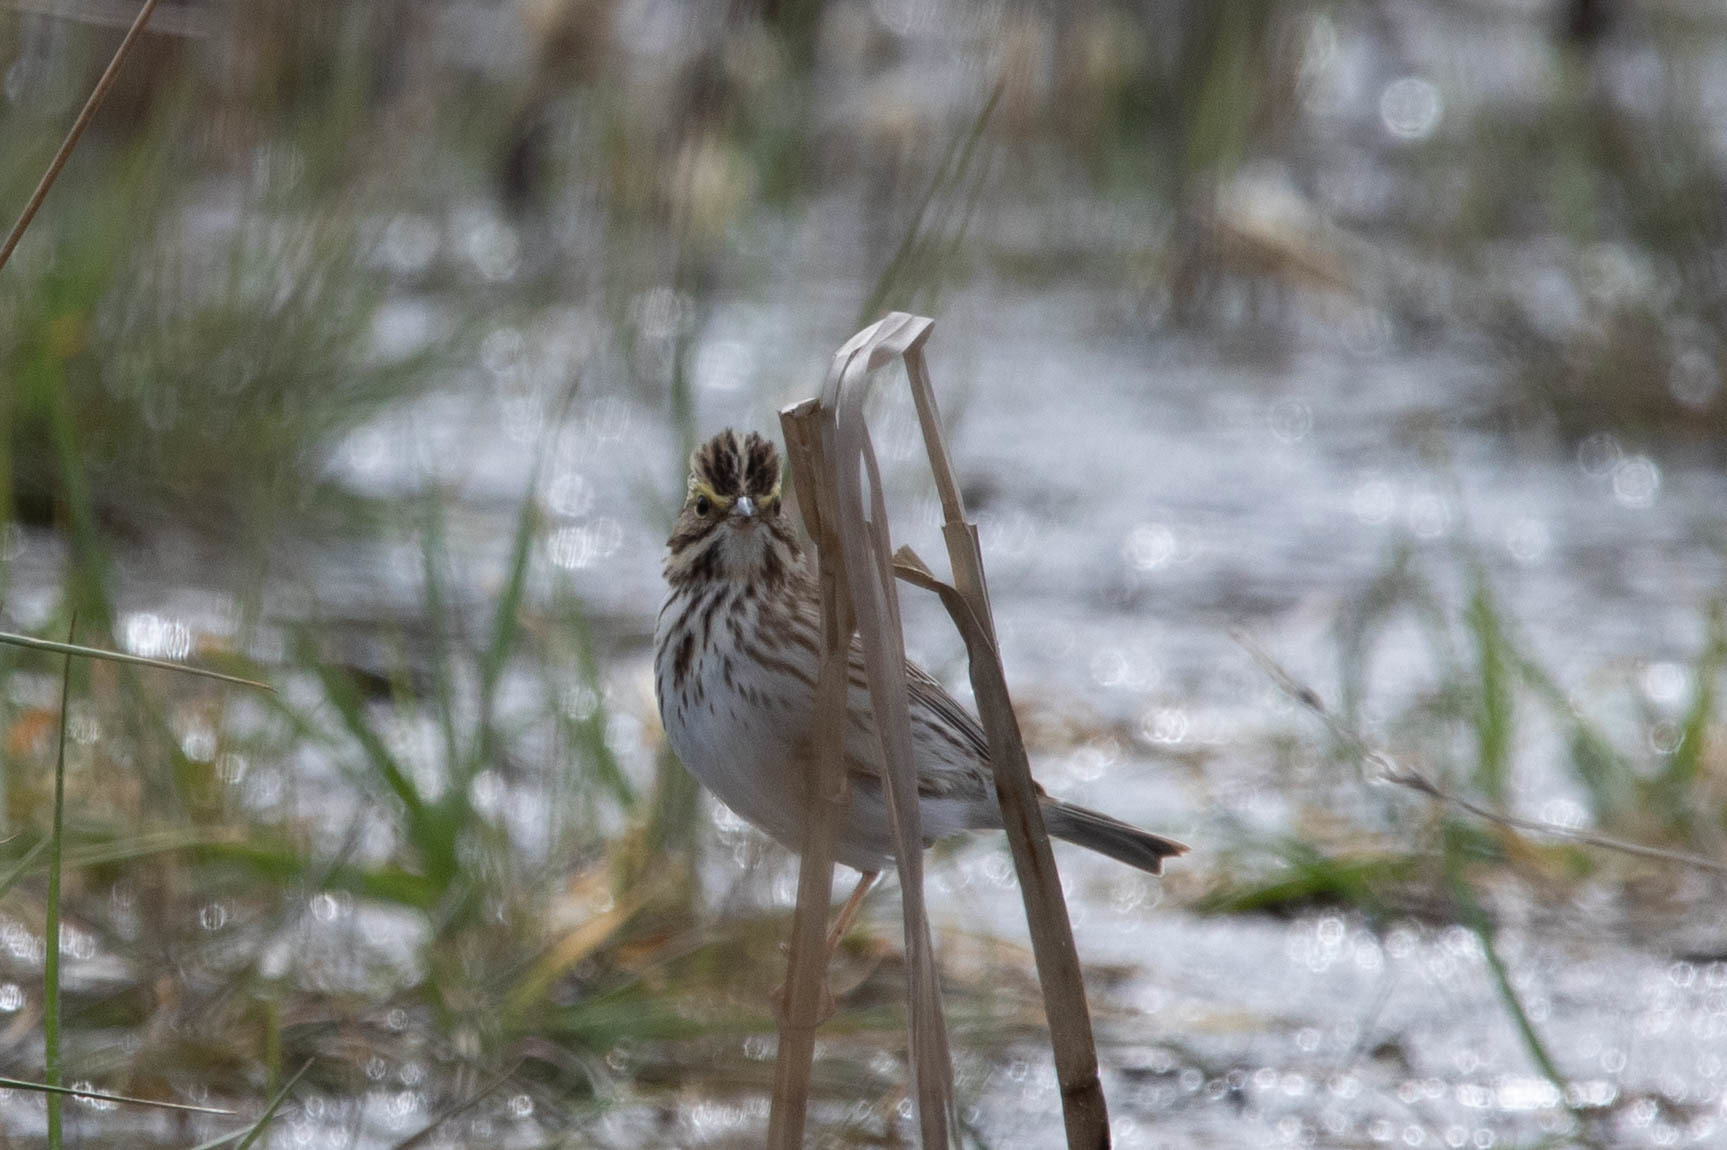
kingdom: Animalia
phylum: Chordata
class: Aves
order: Passeriformes
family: Passerellidae
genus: Passerculus
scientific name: Passerculus sandwichensis
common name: Savannah sparrow
